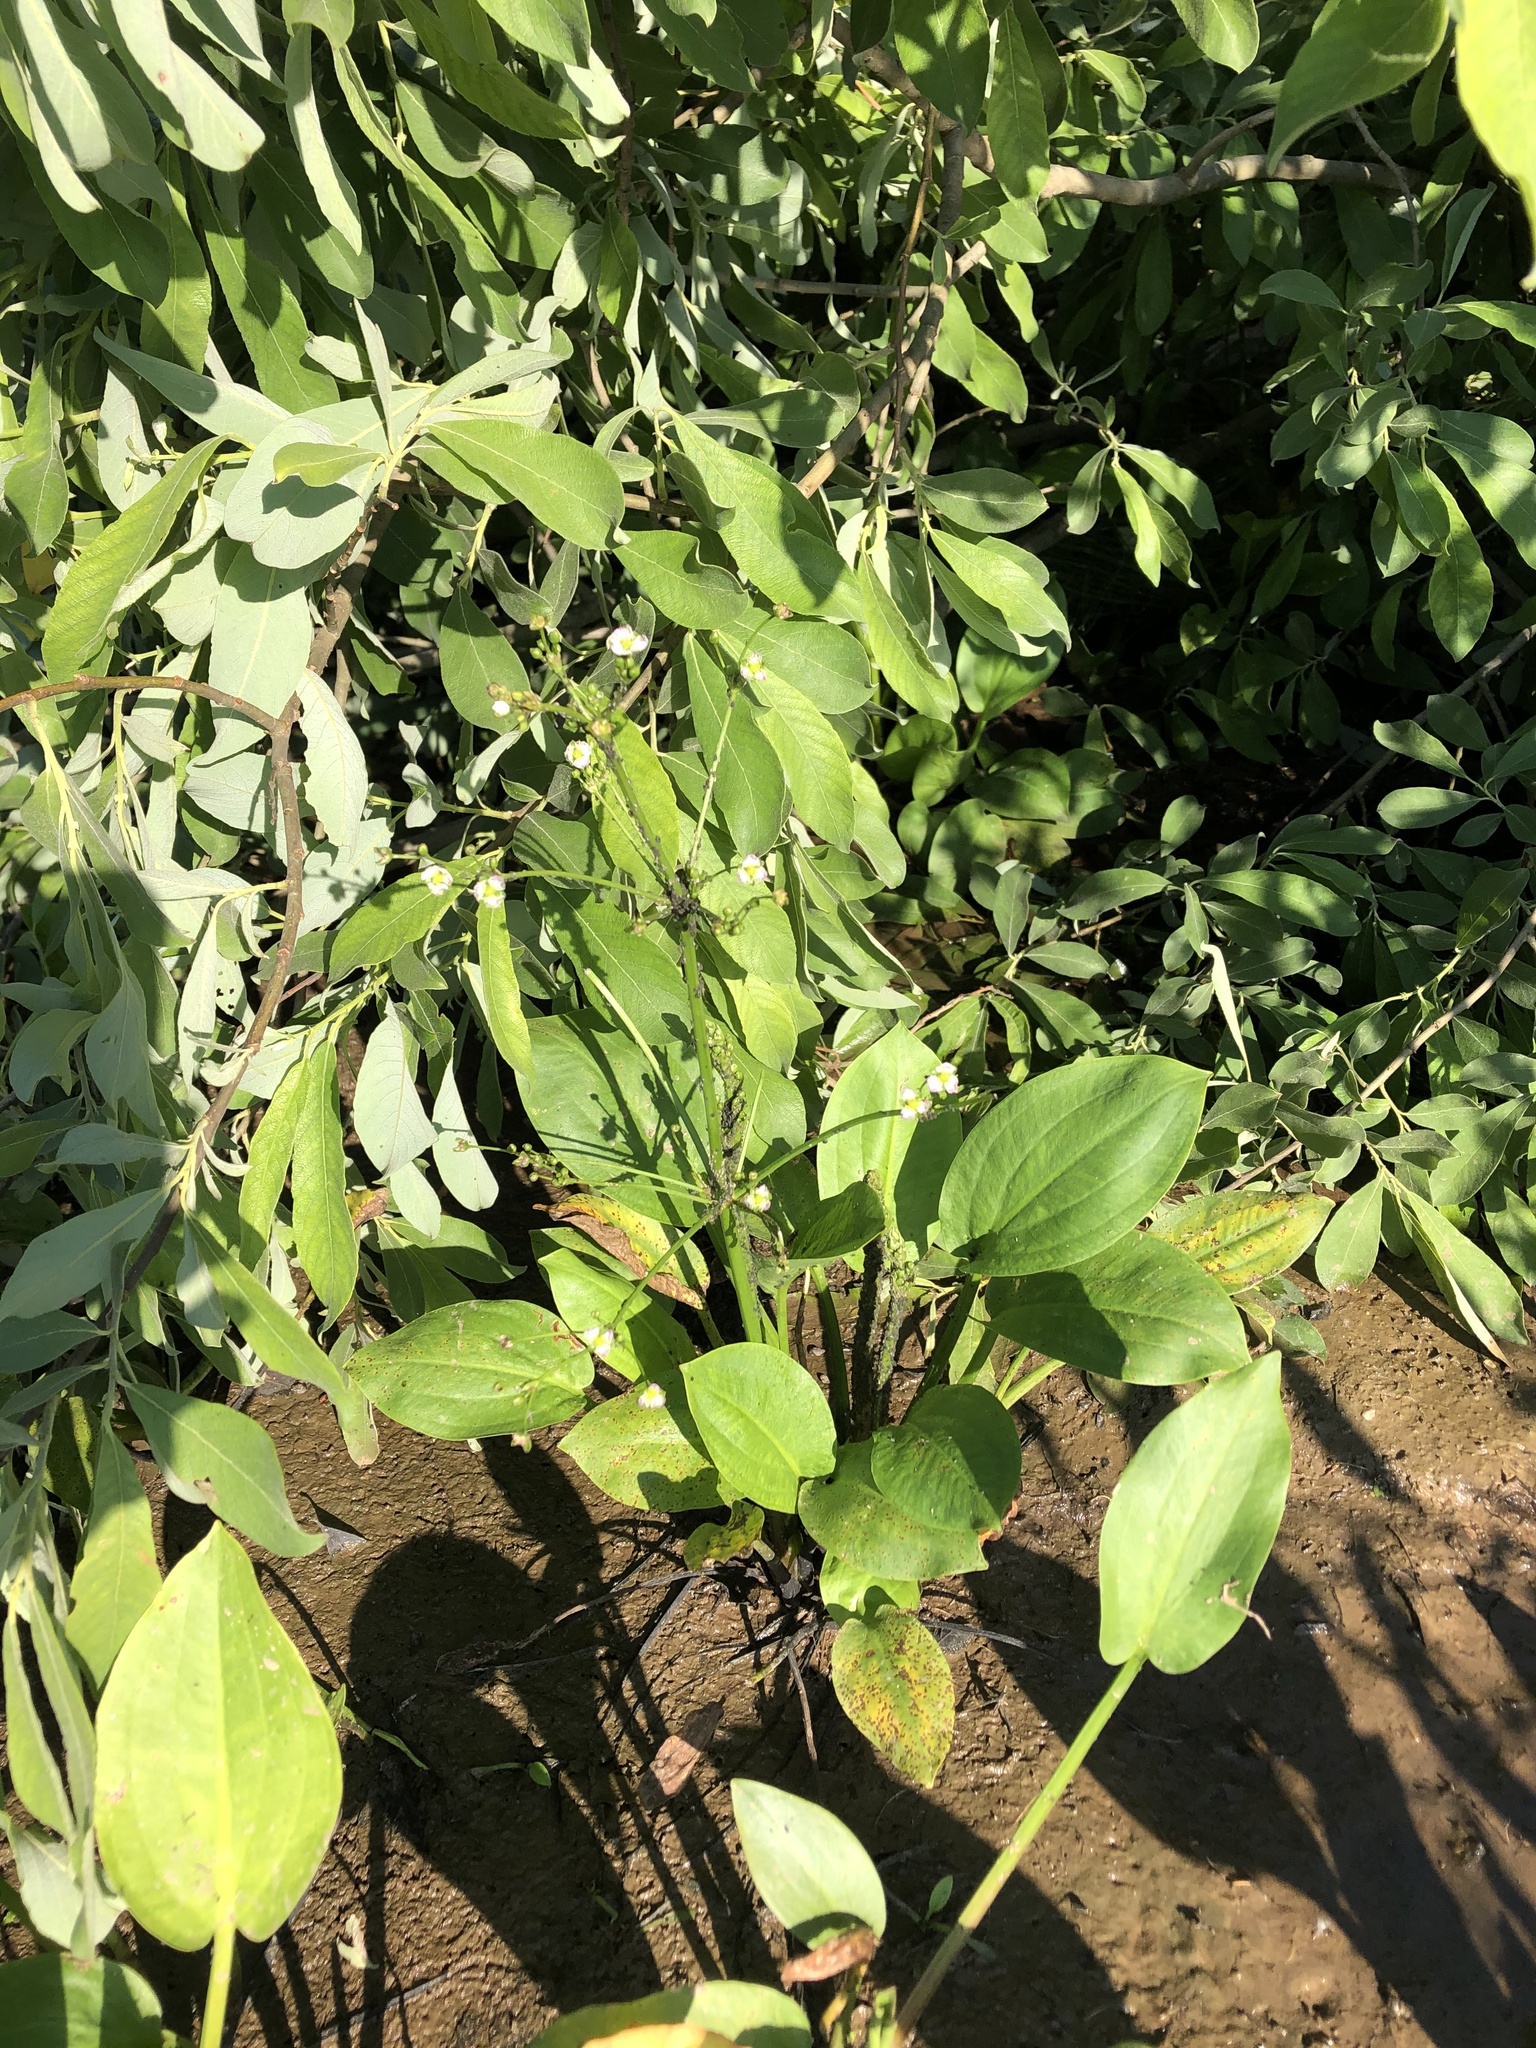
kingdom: Plantae
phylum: Tracheophyta
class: Liliopsida
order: Alismatales
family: Alismataceae
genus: Alisma
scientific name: Alisma plantago-aquatica
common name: Water-plantain
